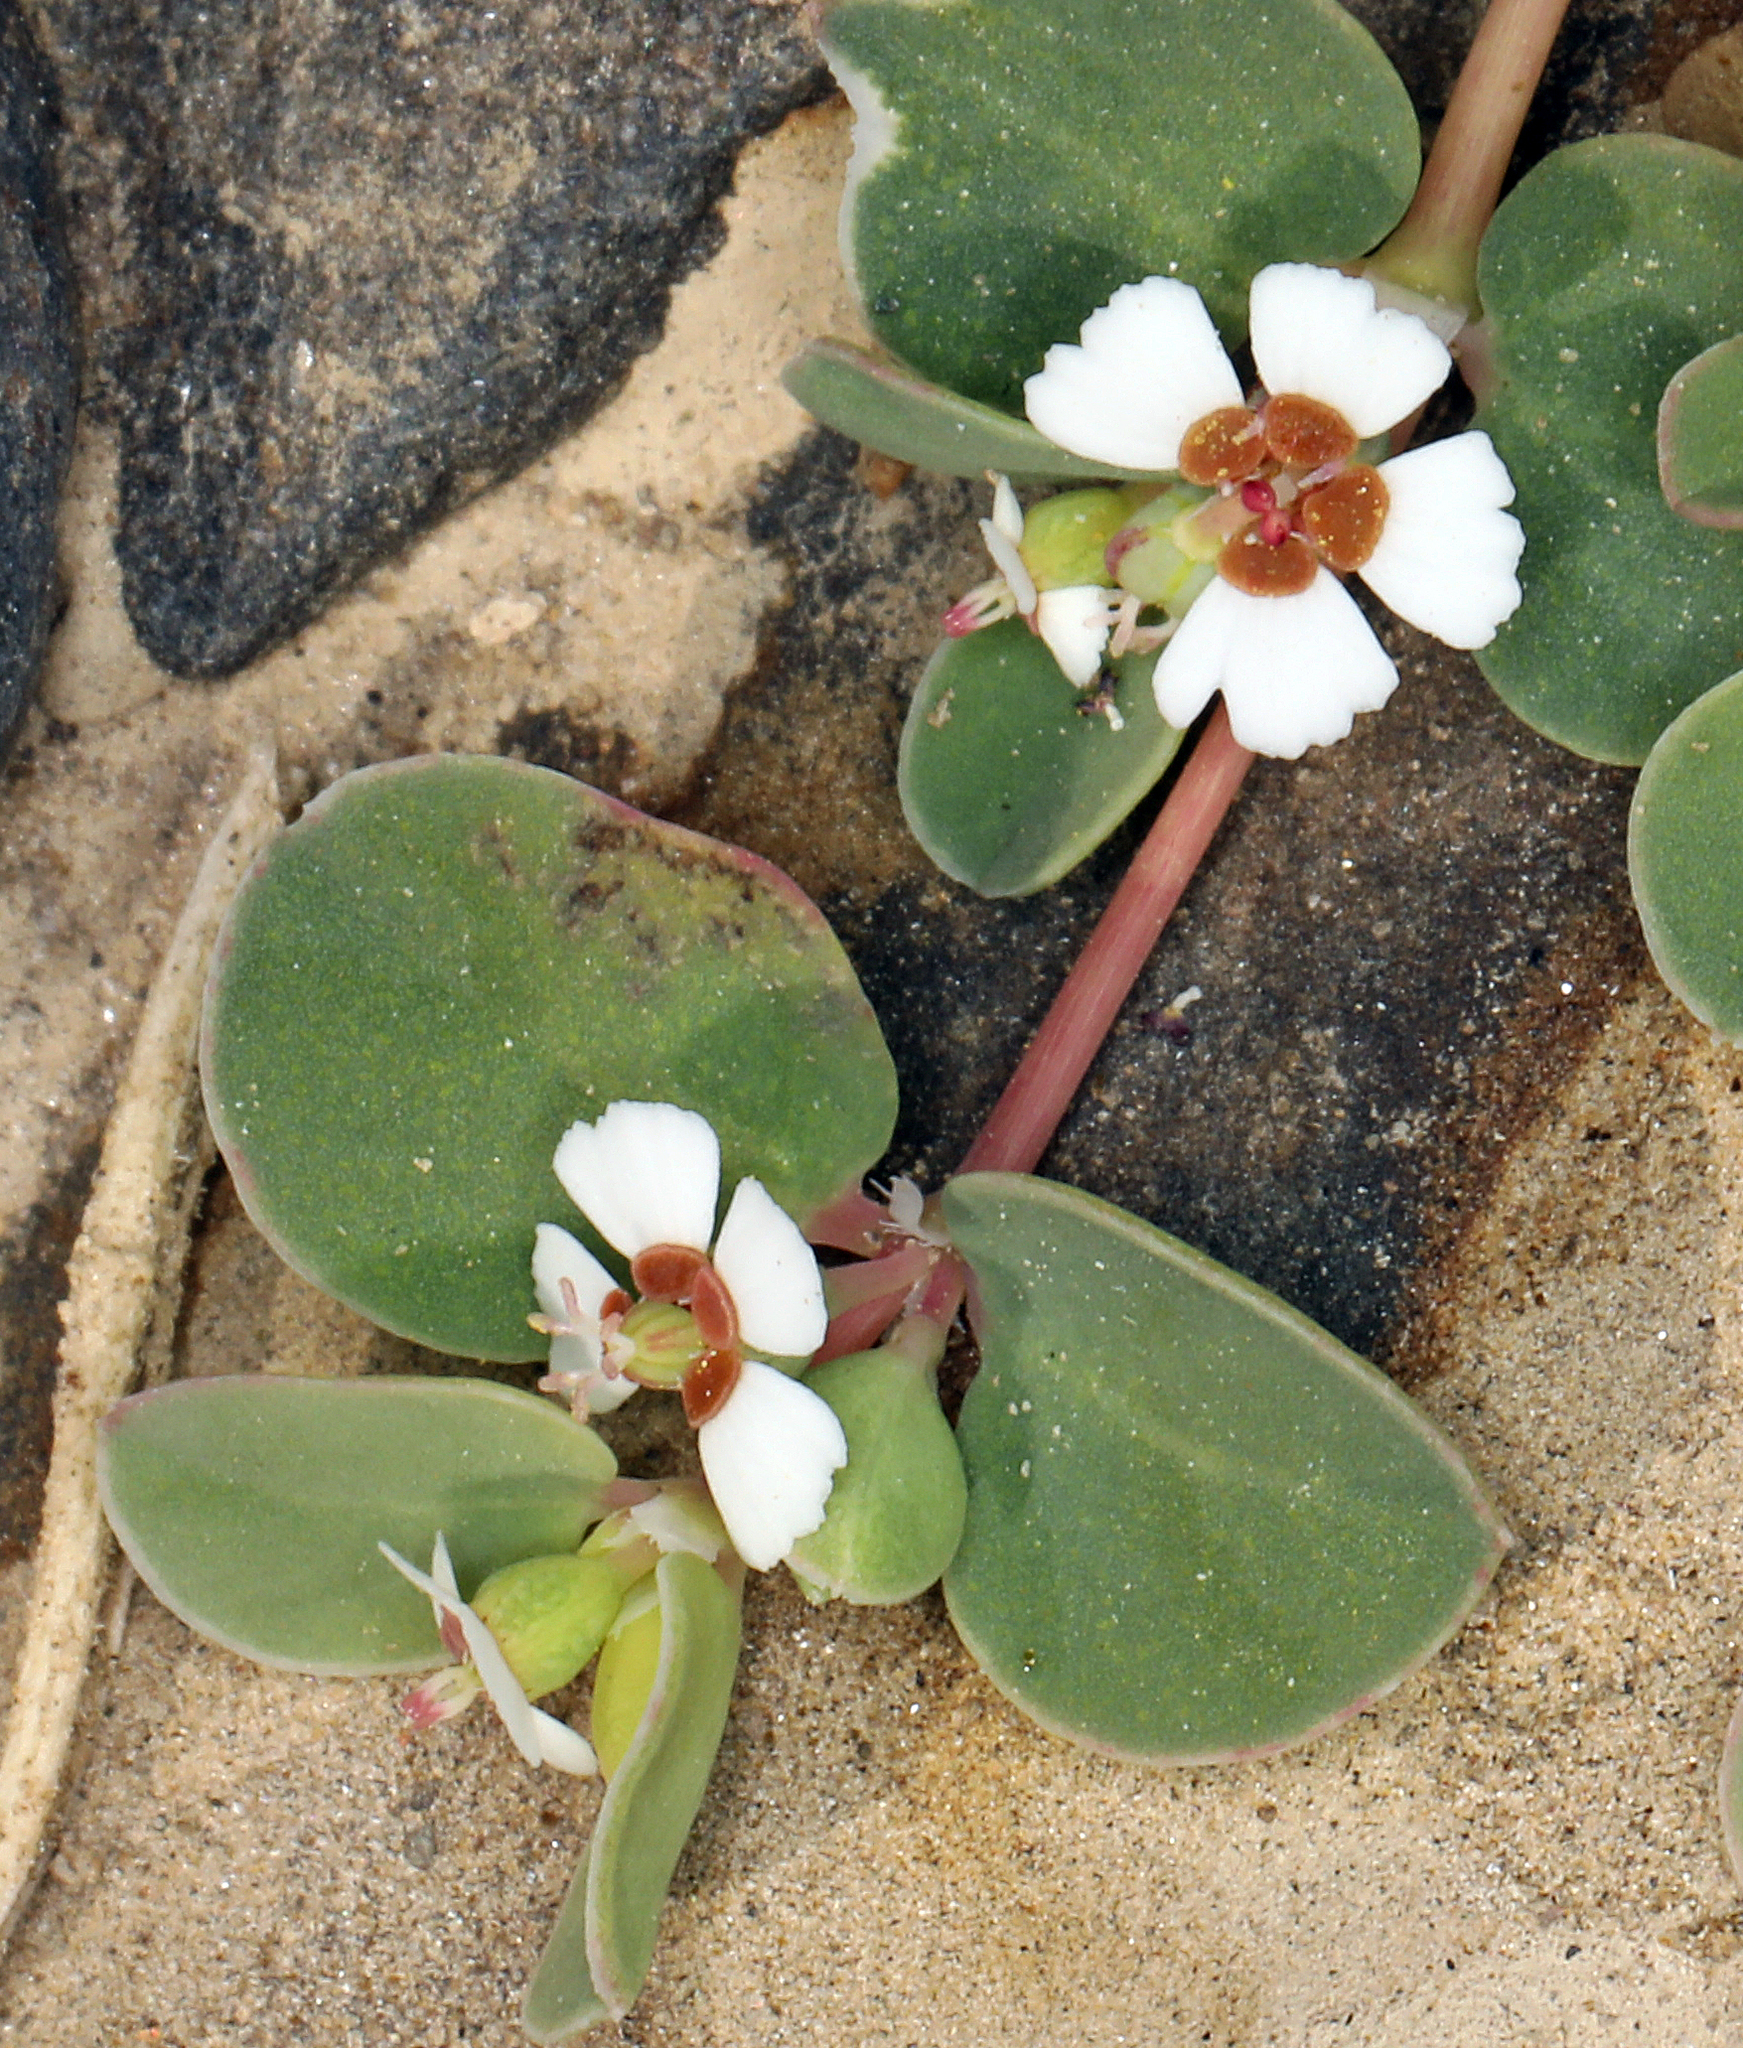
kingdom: Plantae
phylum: Tracheophyta
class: Magnoliopsida
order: Malpighiales
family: Euphorbiaceae
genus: Euphorbia
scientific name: Euphorbia albomarginata
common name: Whitemargin sandmat
